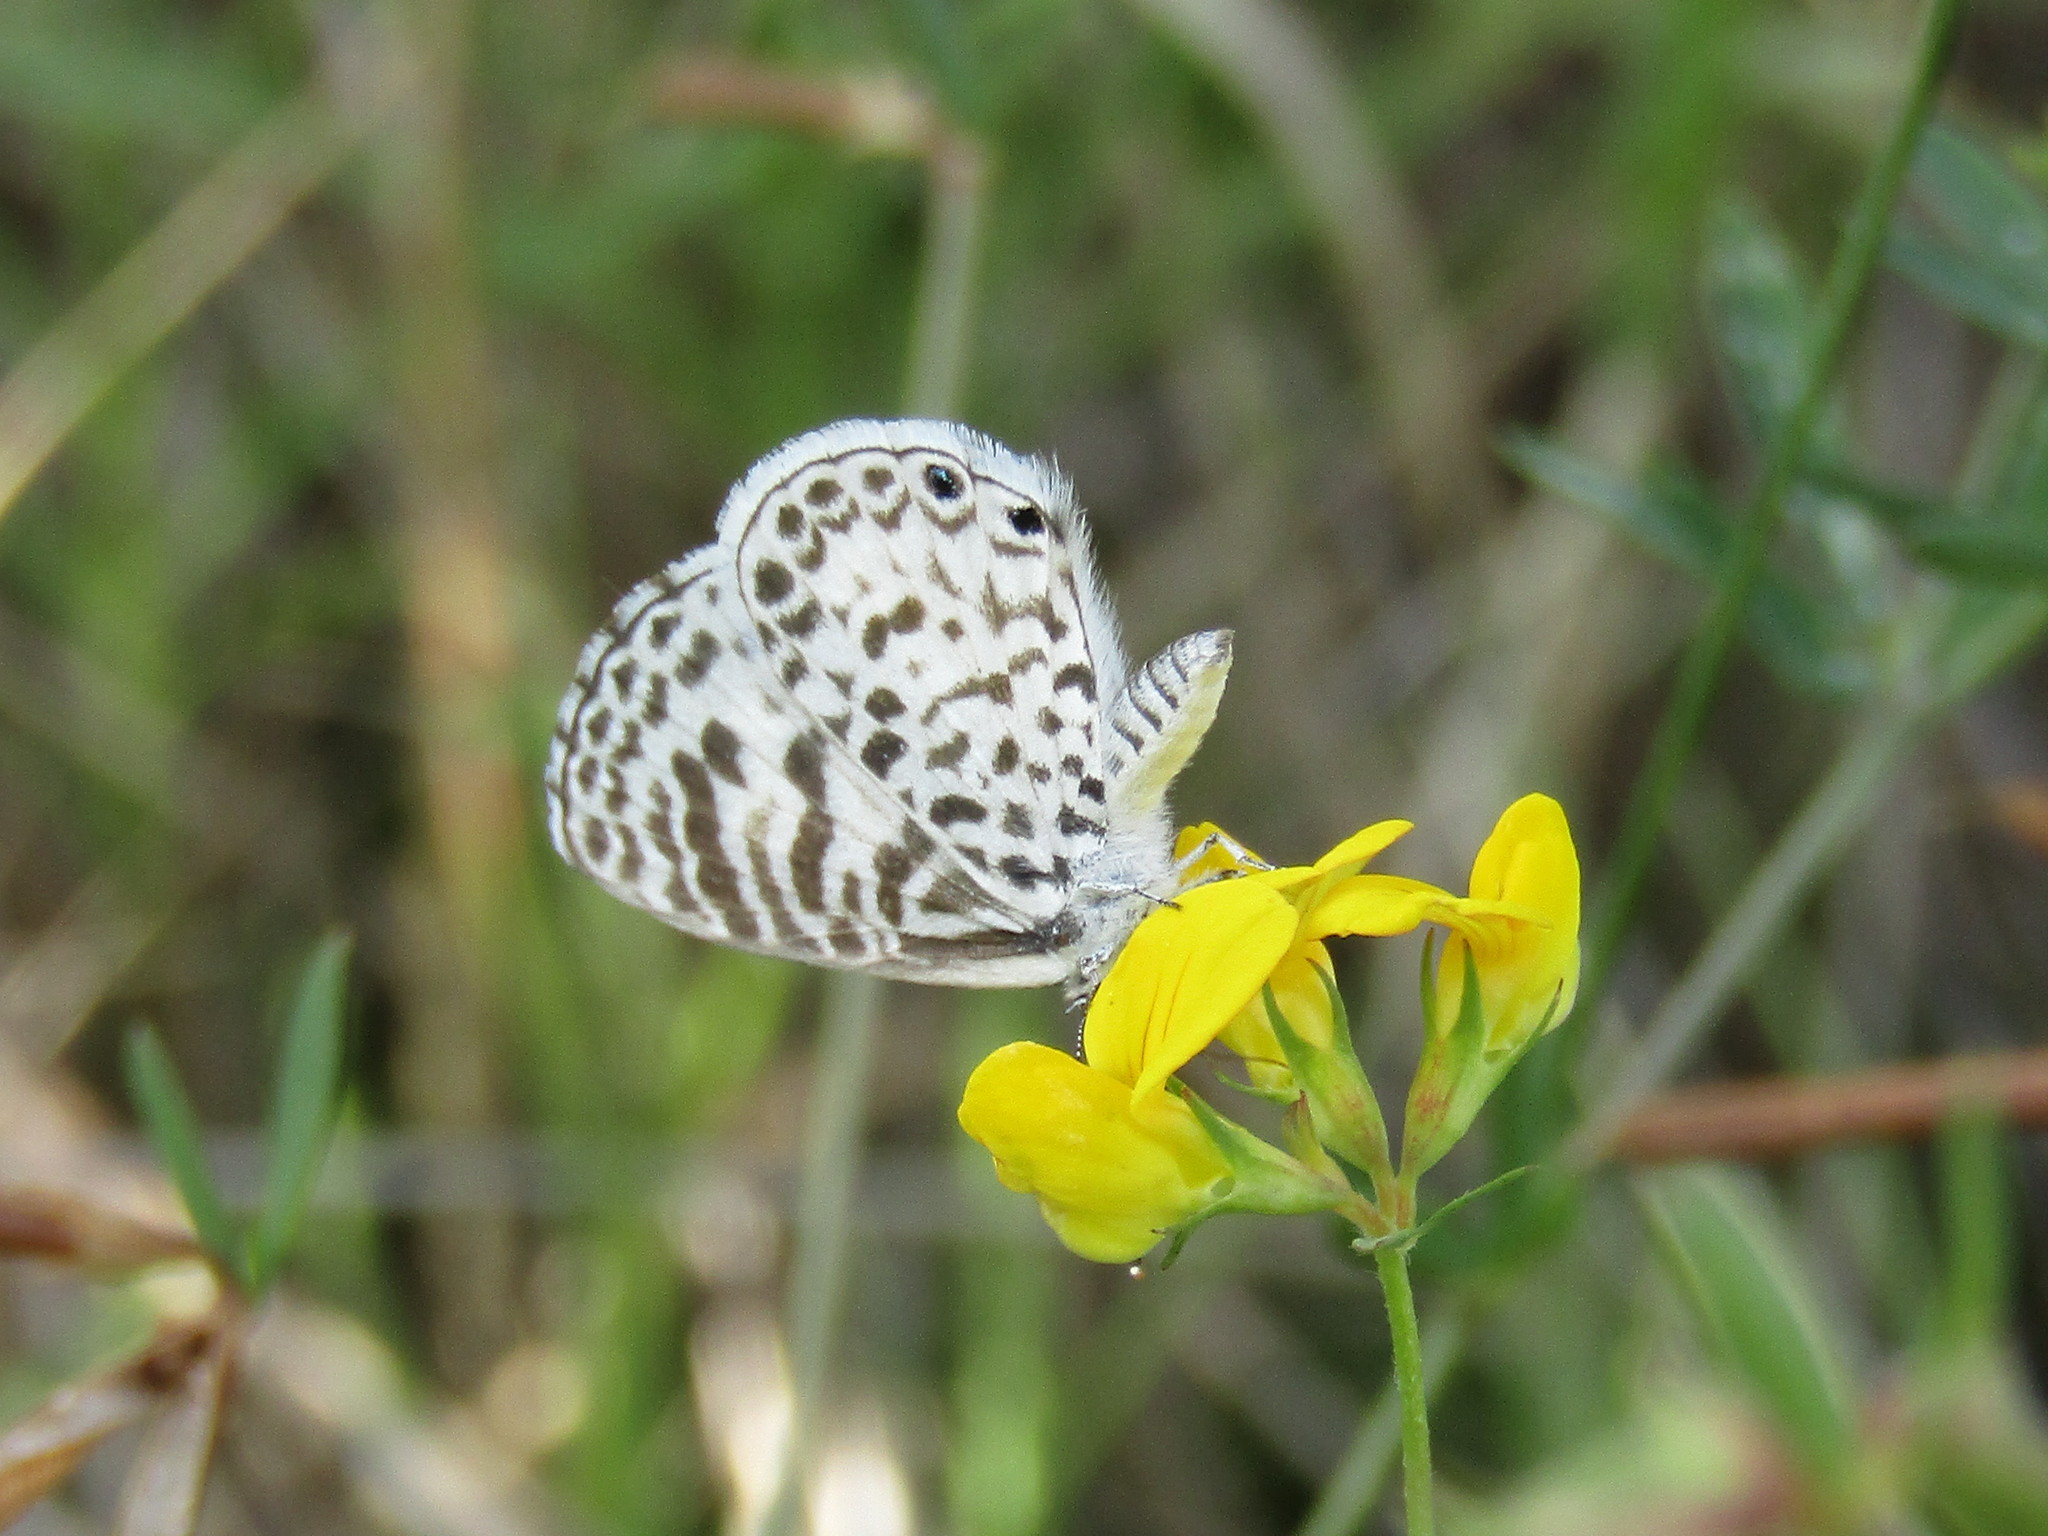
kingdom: Animalia
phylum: Arthropoda
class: Insecta
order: Lepidoptera
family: Lycaenidae
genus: Leptotes
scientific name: Leptotes cassius
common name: Cassius blue
